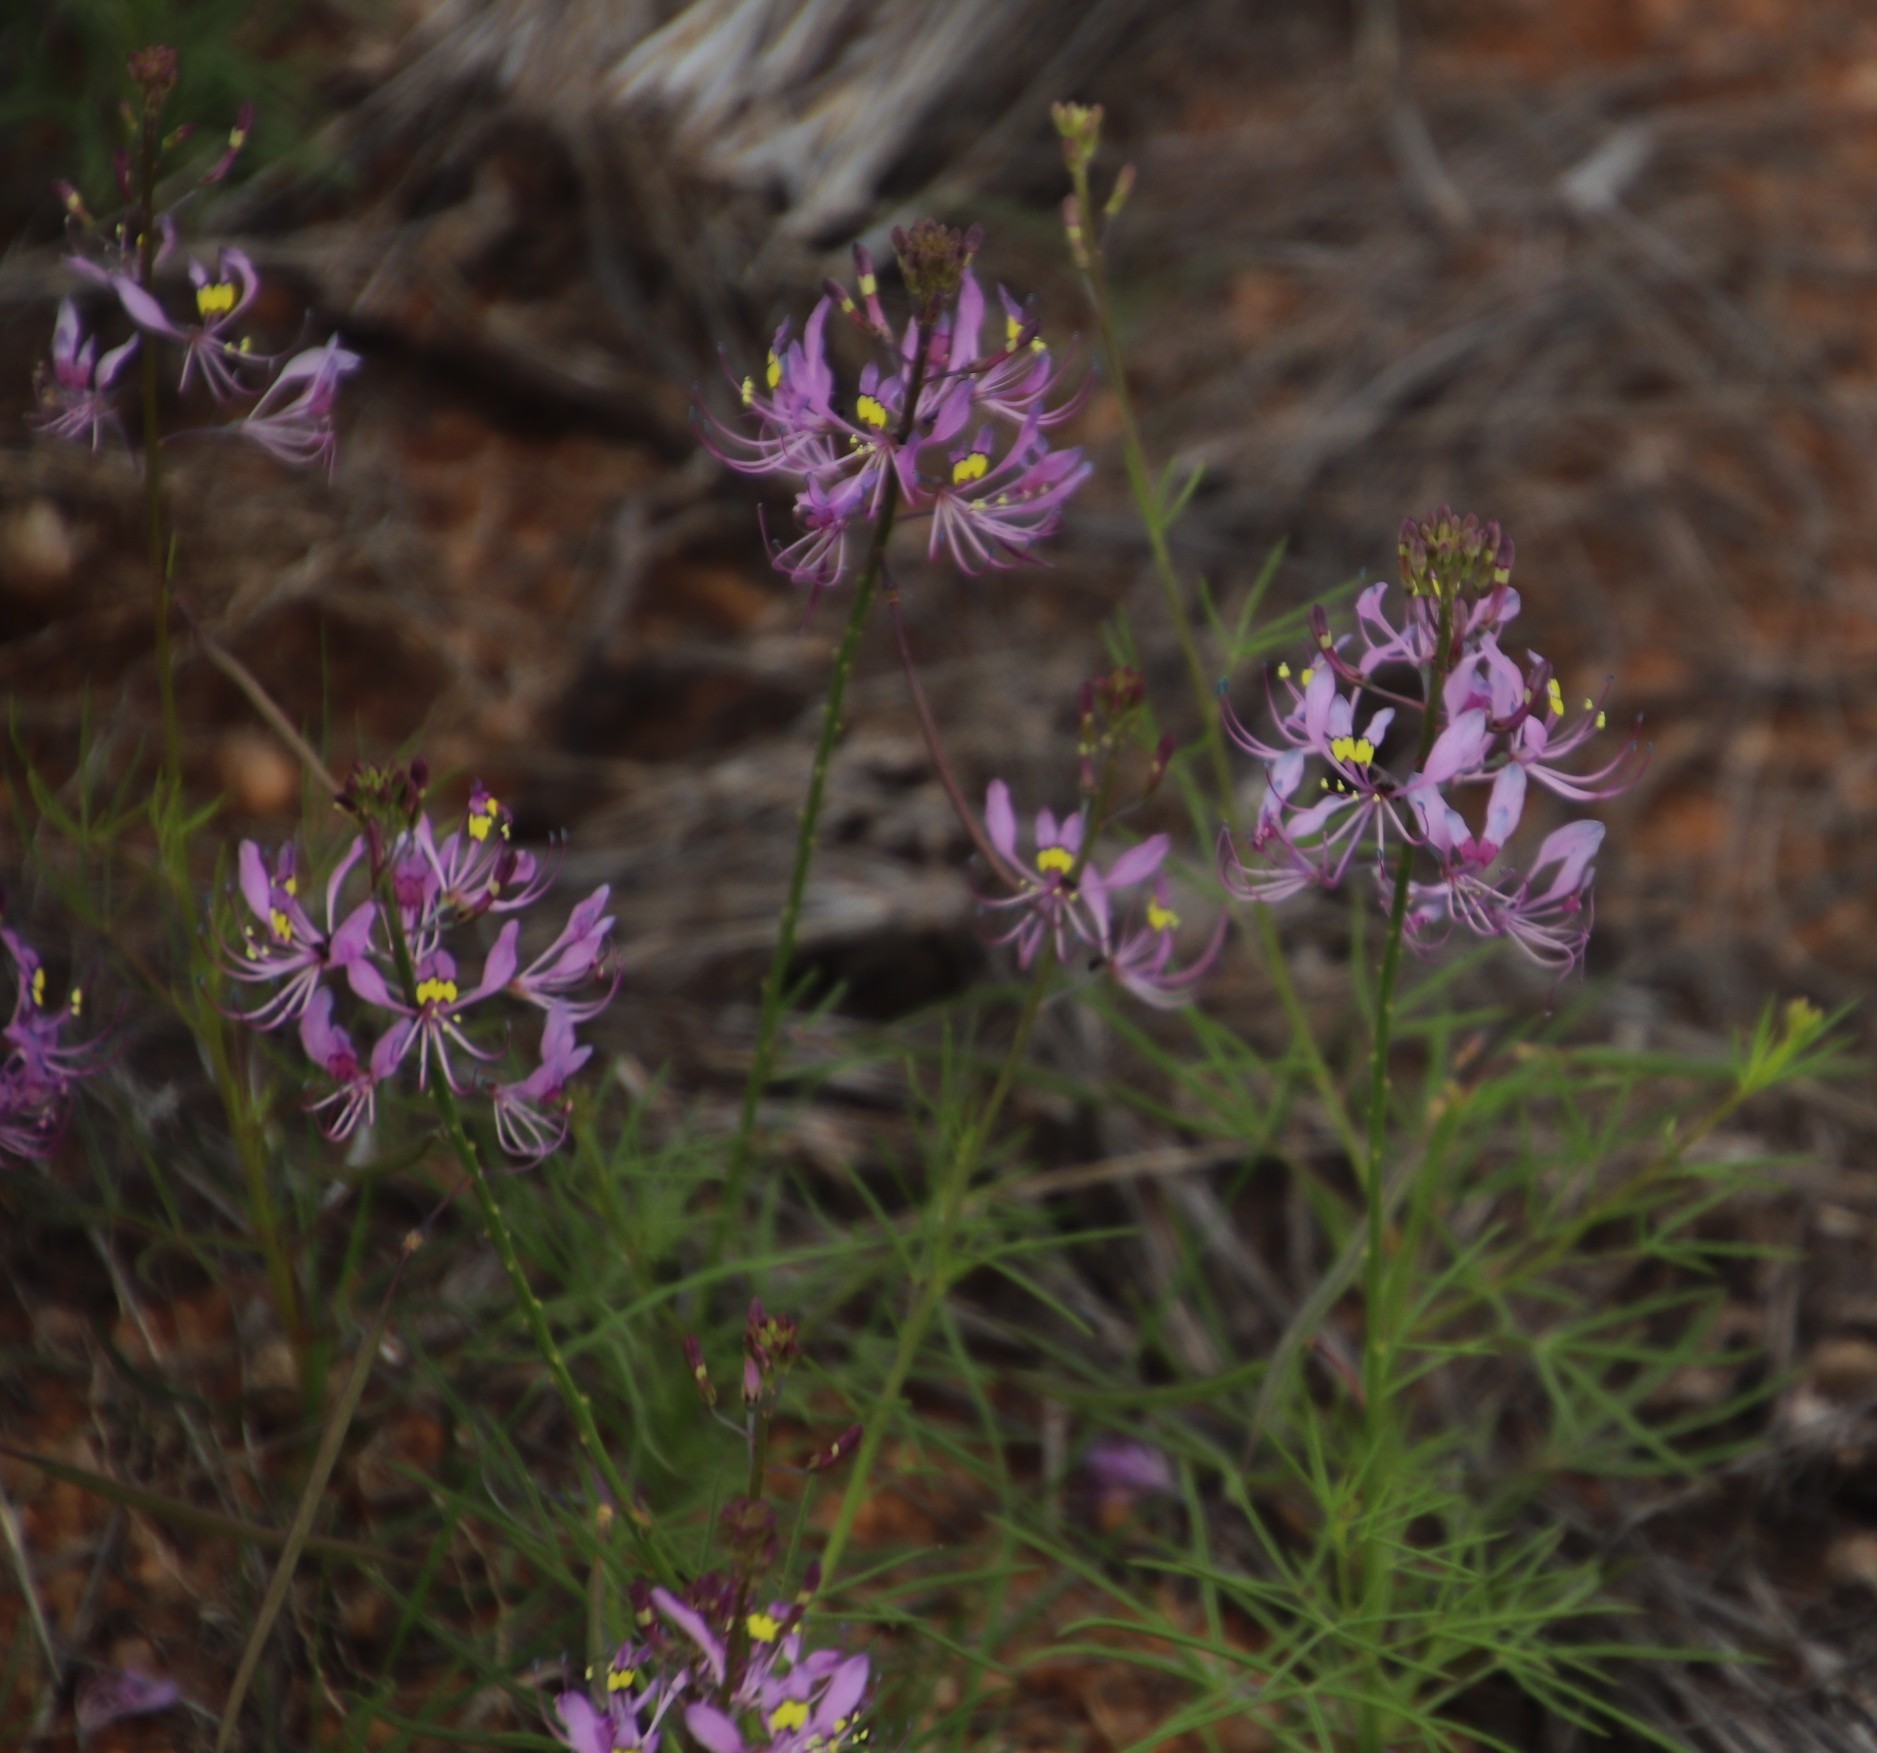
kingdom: Plantae
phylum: Tracheophyta
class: Magnoliopsida
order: Brassicales
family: Cleomaceae
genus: Sieruela
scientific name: Sieruela maculata
